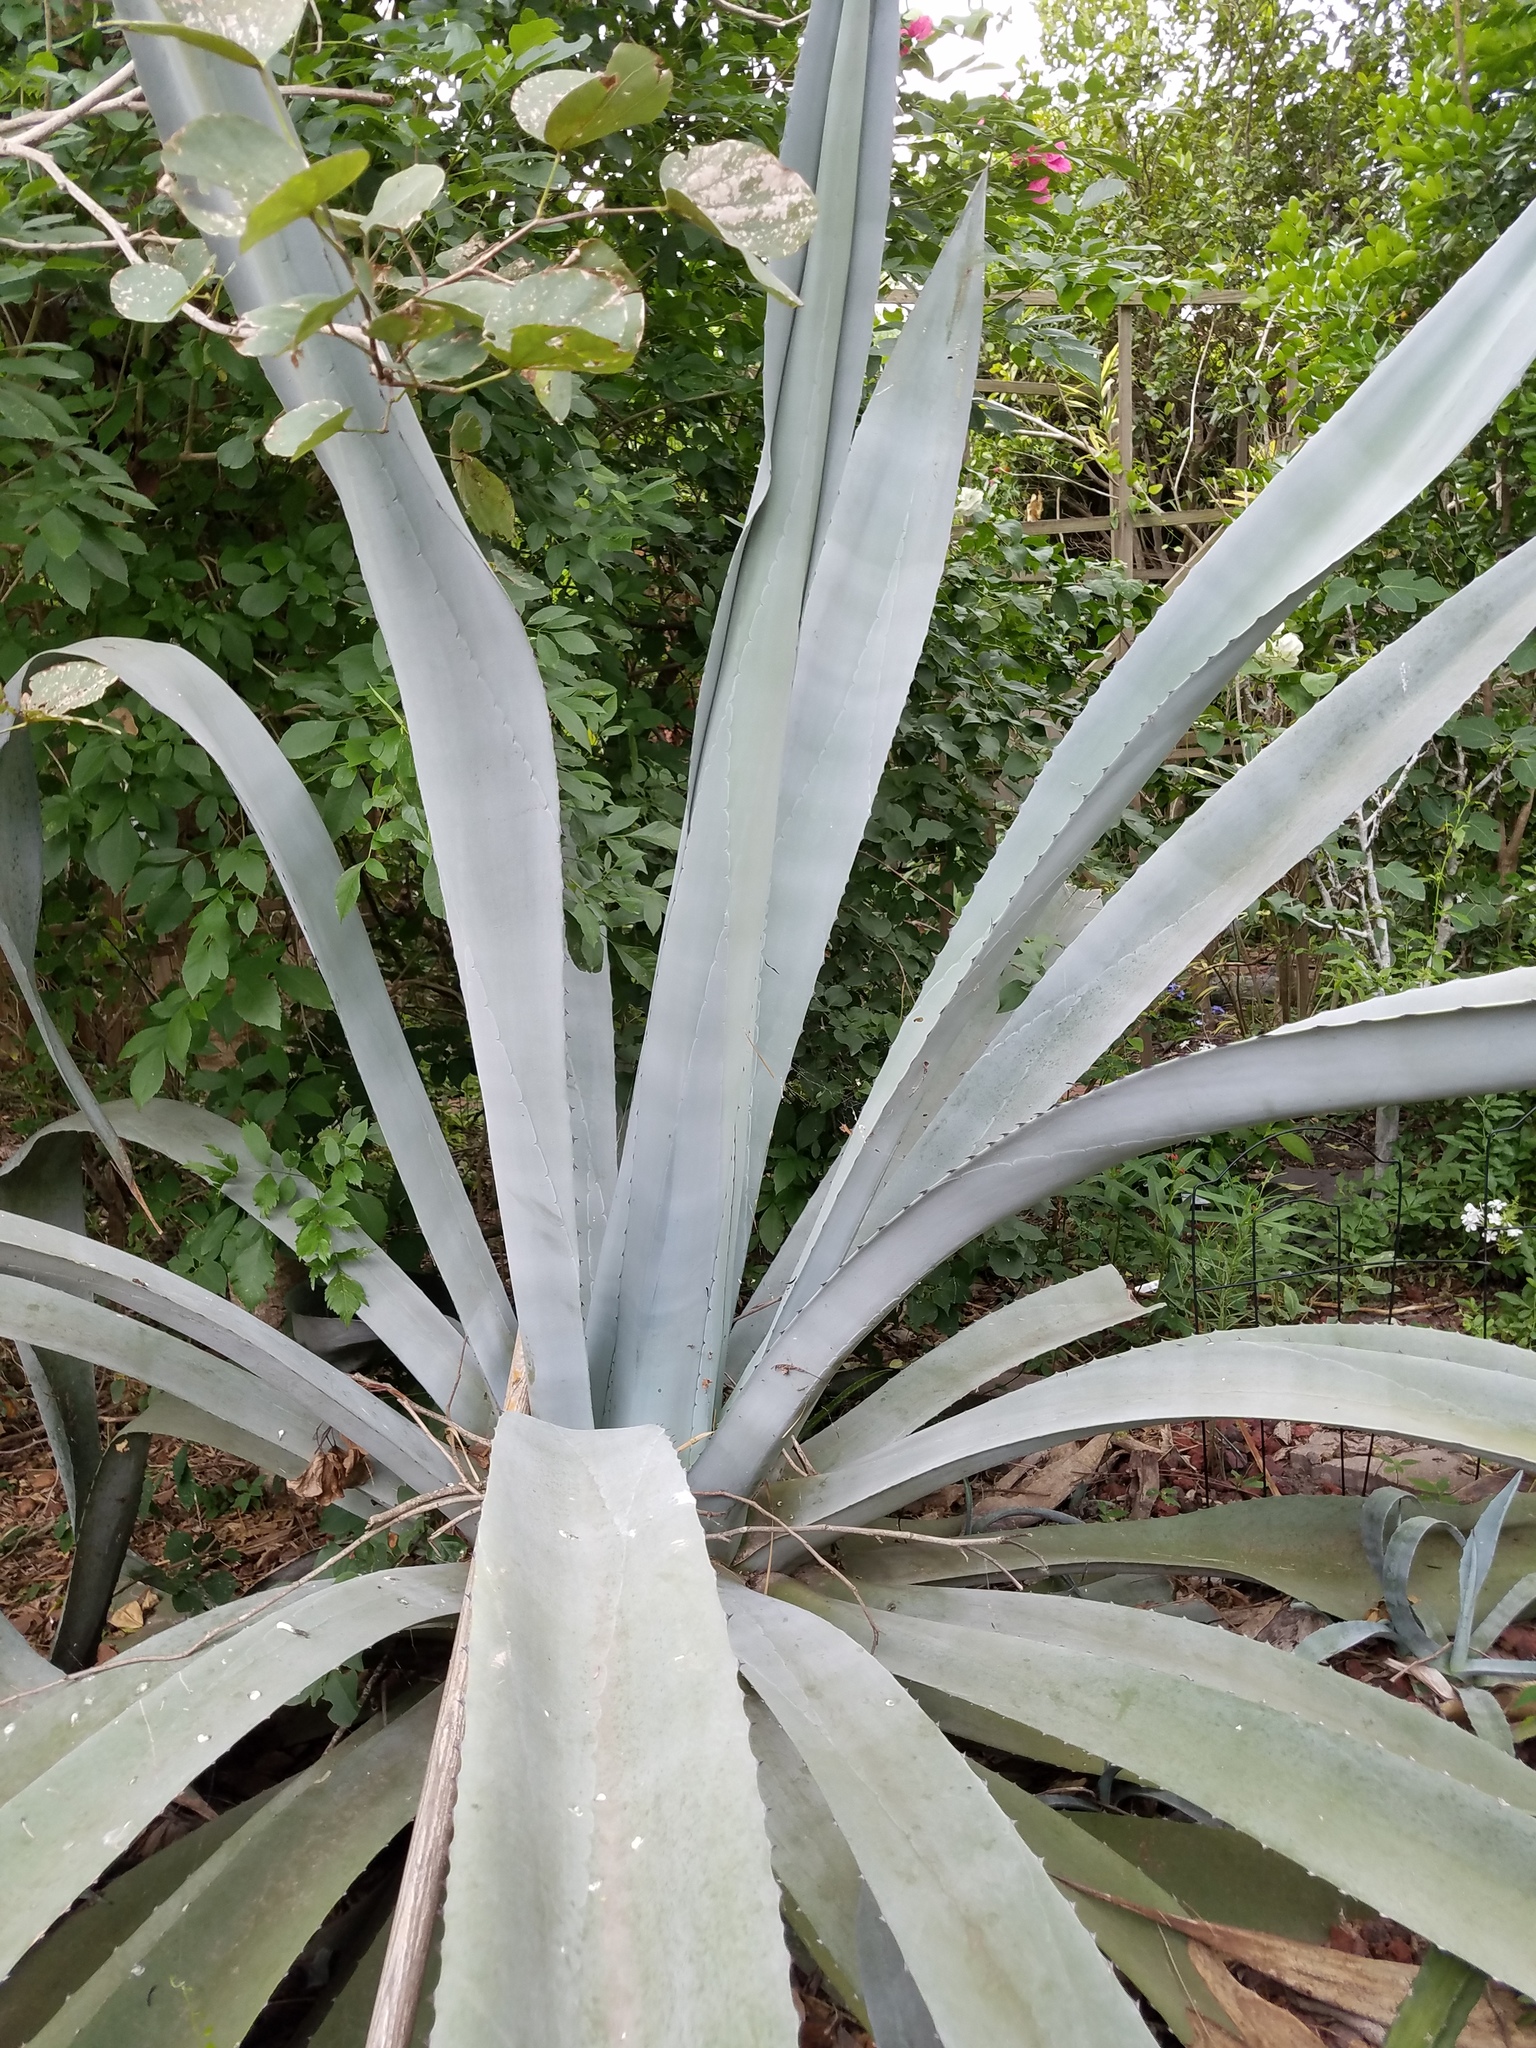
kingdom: Plantae
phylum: Tracheophyta
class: Liliopsida
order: Asparagales
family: Asparagaceae
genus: Agave
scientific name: Agave americana
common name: Centuryplant
